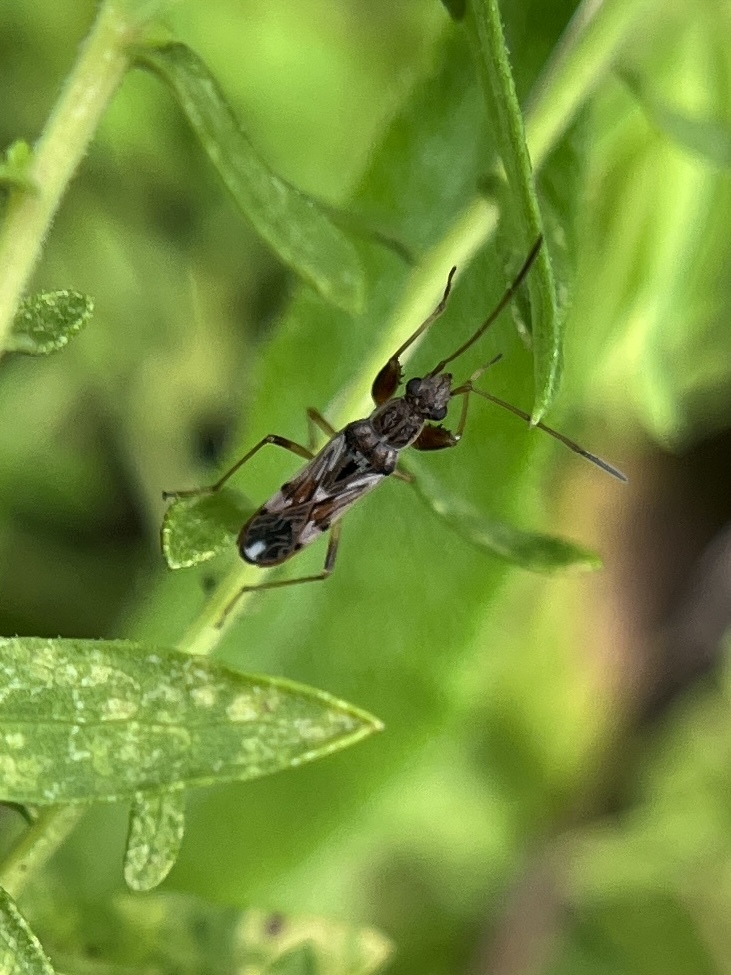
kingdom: Animalia
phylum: Arthropoda
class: Insecta
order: Hemiptera
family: Rhyparochromidae
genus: Neopamera
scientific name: Neopamera bilobata
